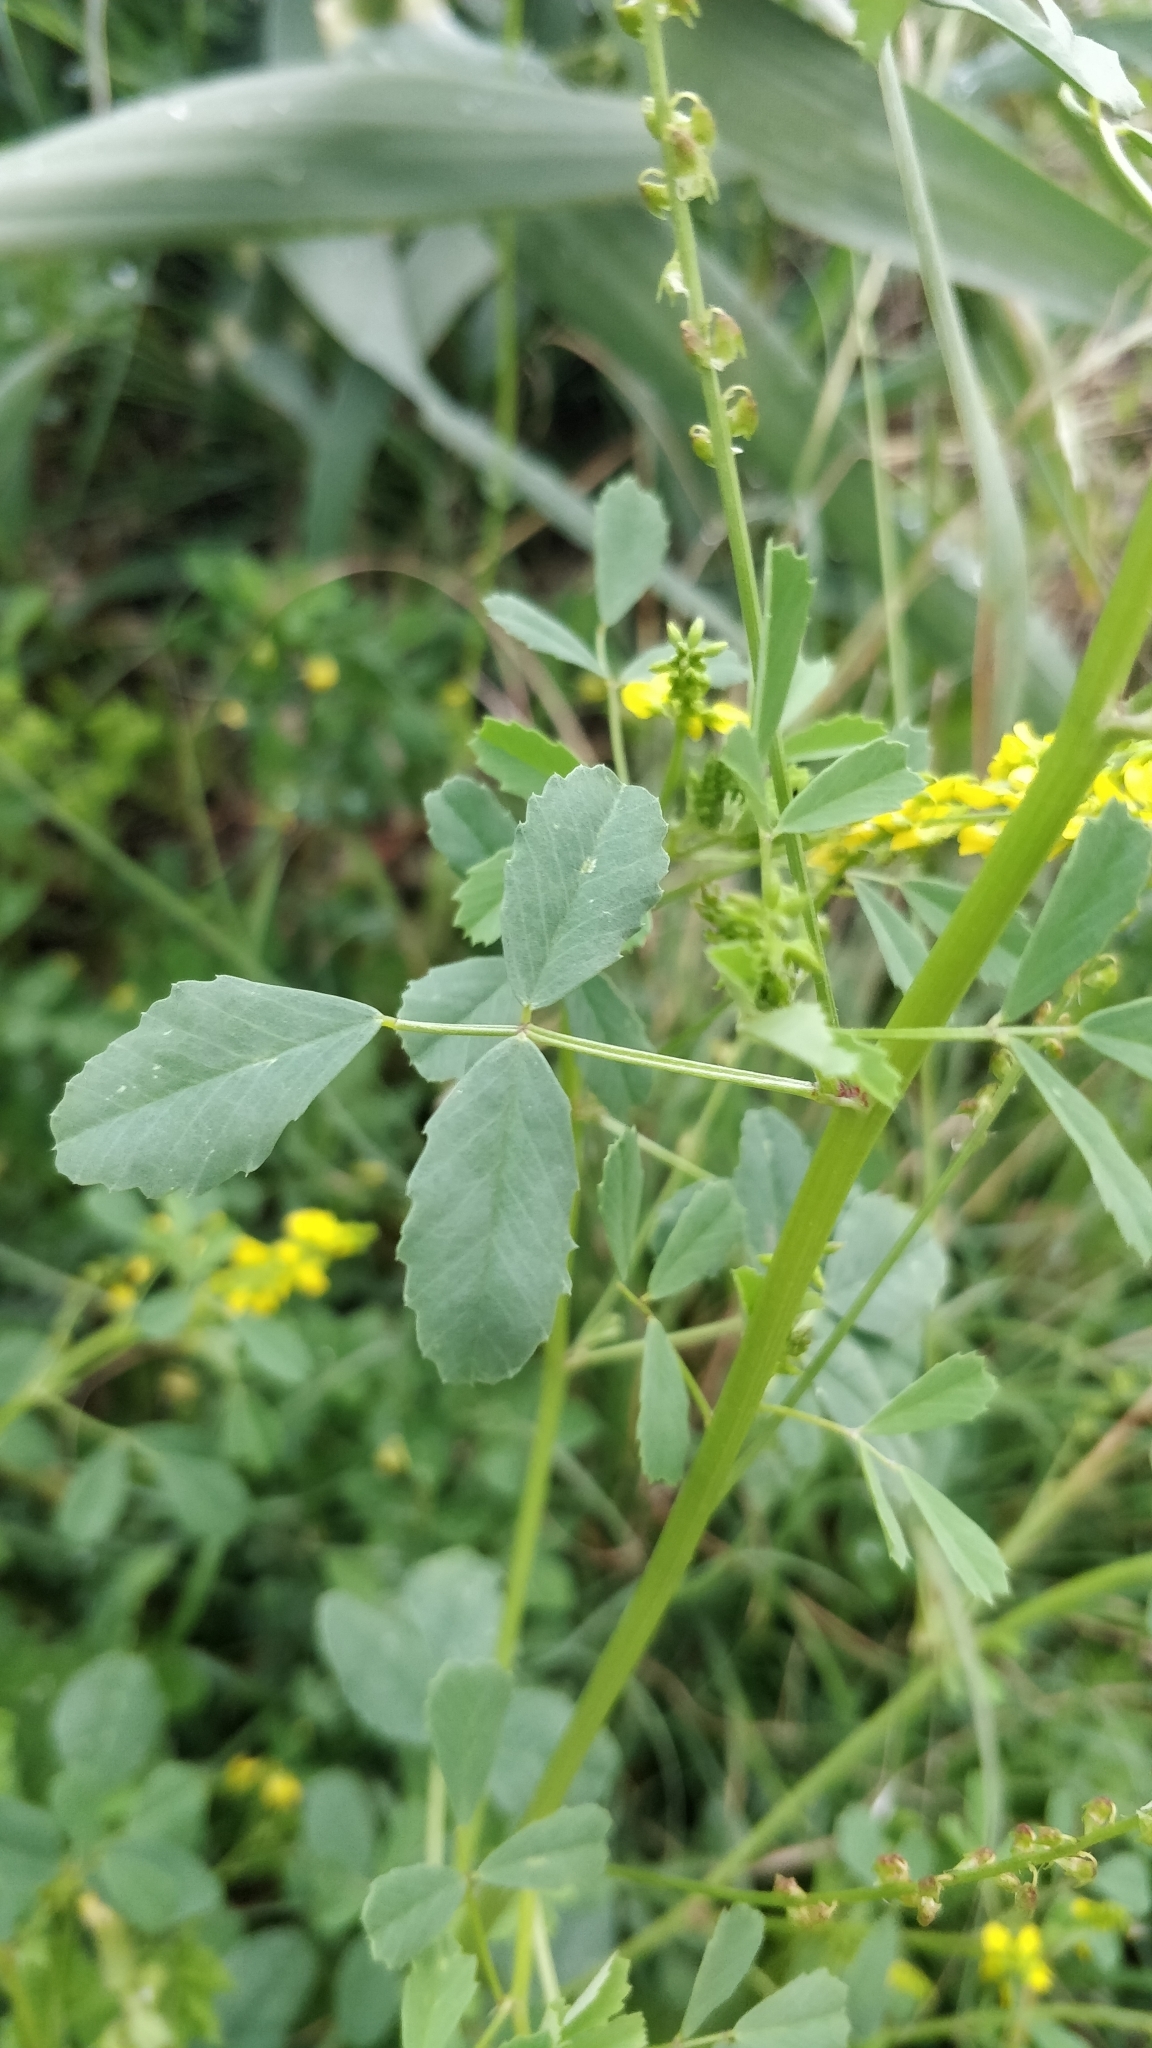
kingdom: Plantae
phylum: Tracheophyta
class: Magnoliopsida
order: Fabales
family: Fabaceae
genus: Melilotus
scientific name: Melilotus indicus
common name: Small melilot
